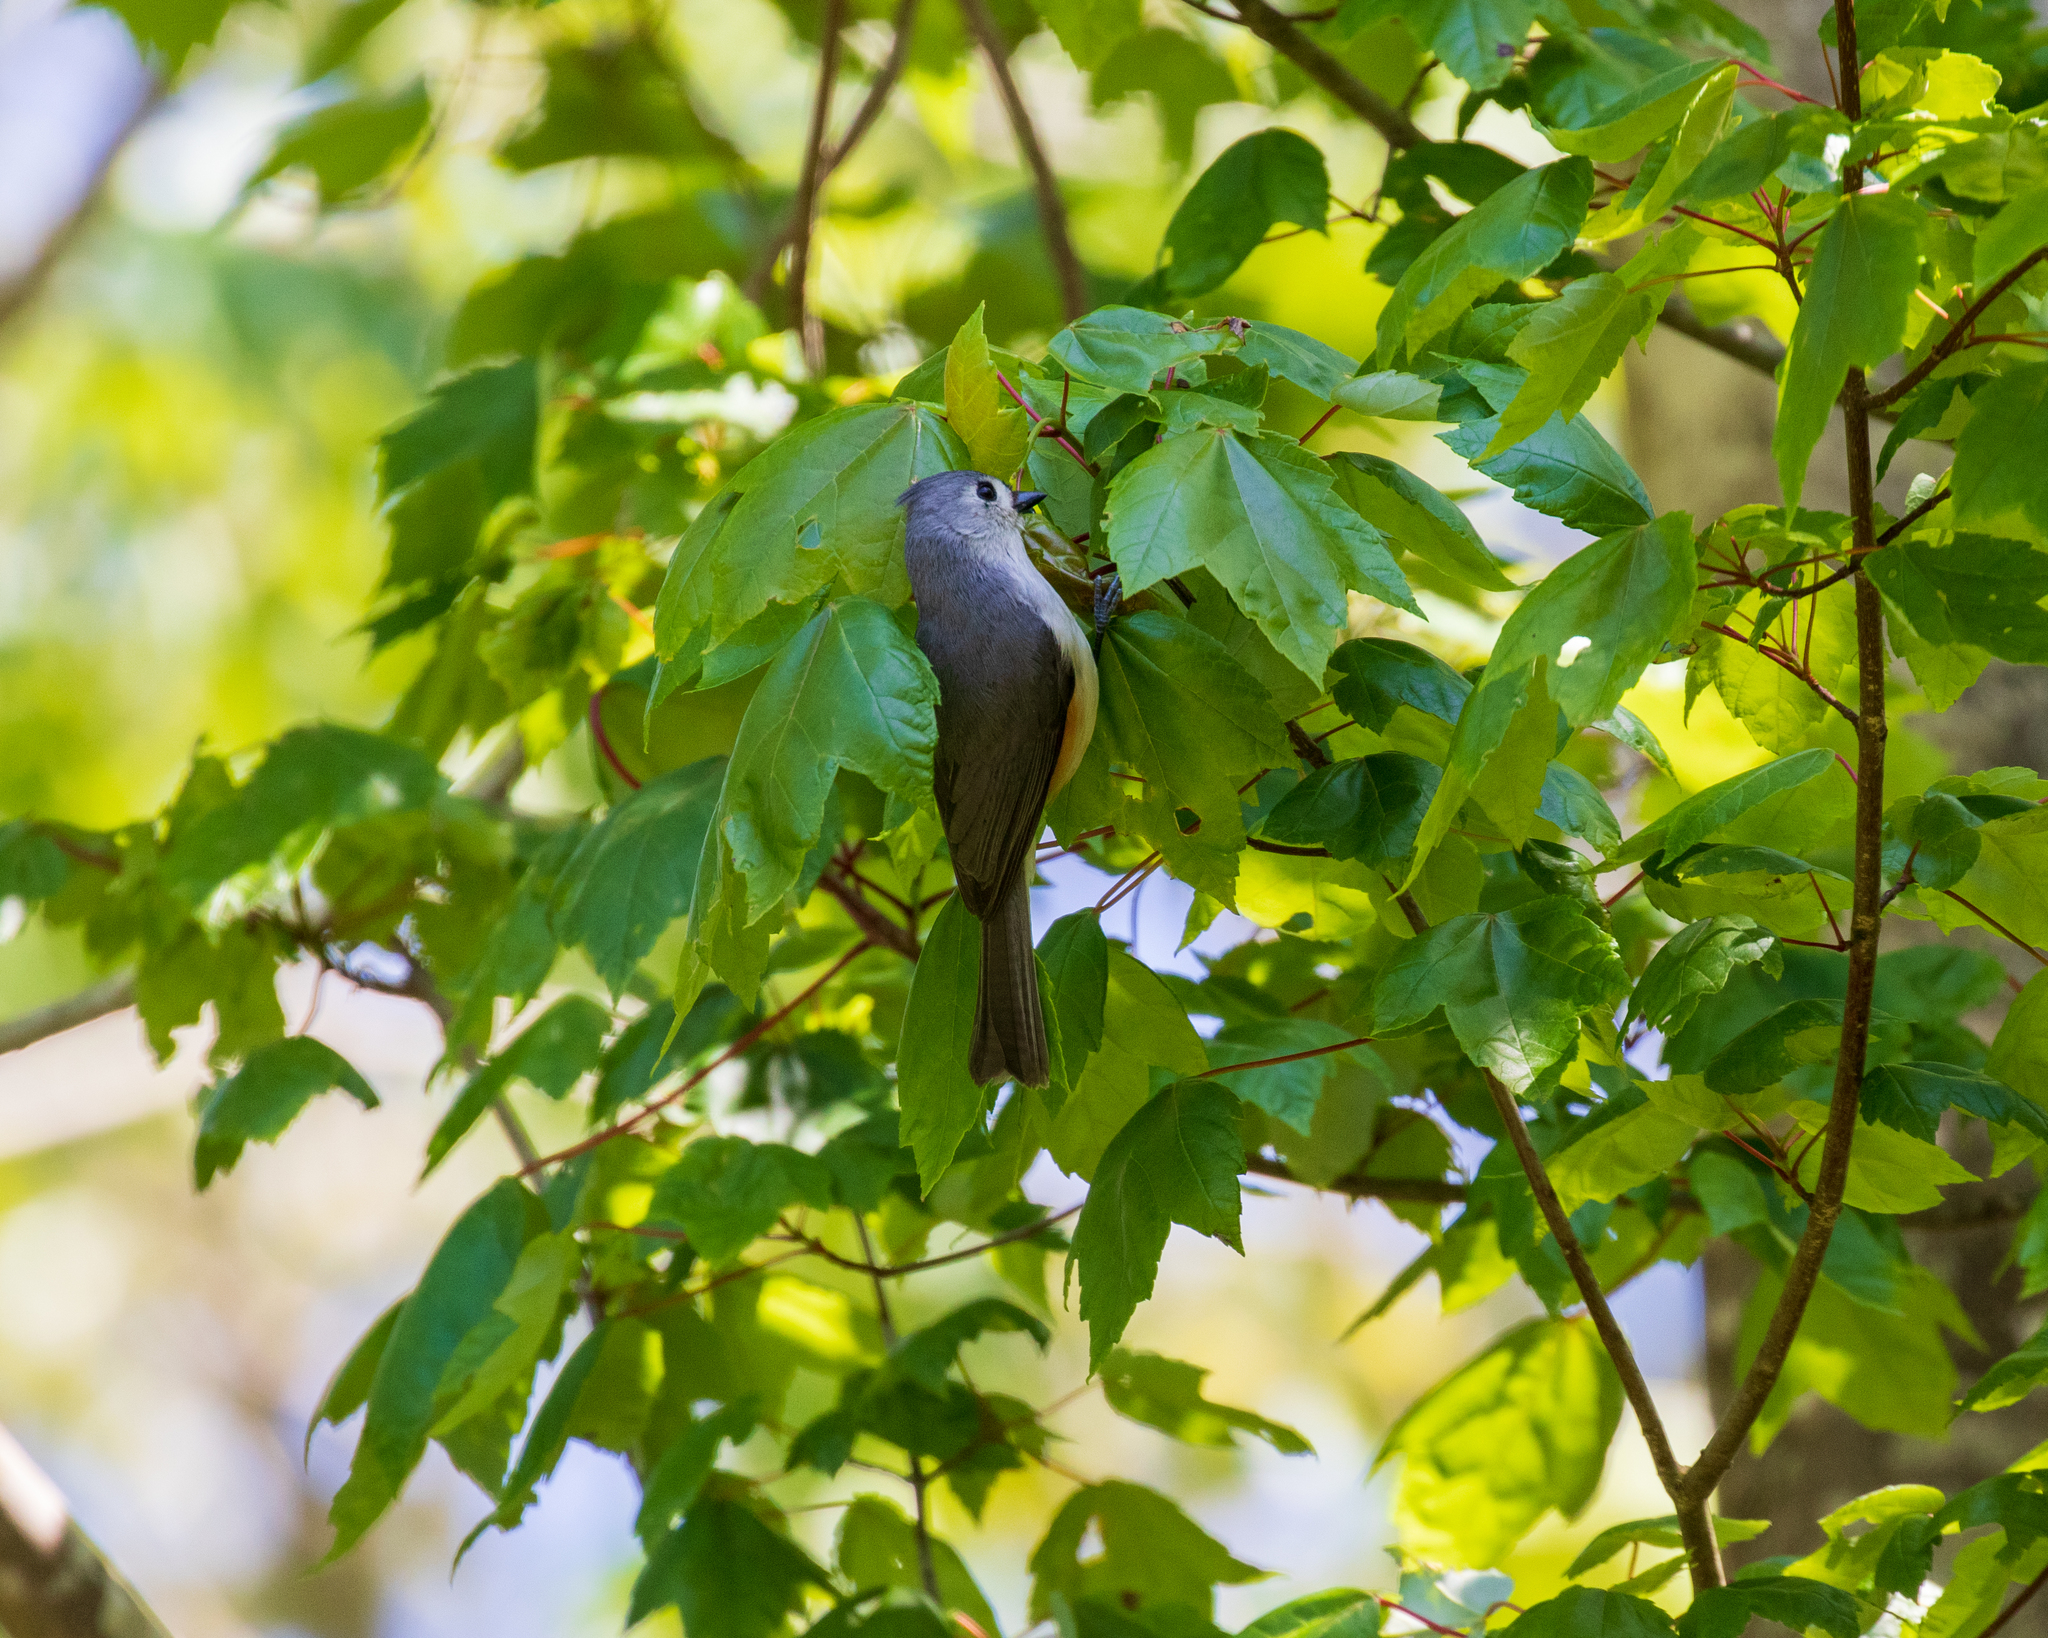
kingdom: Animalia
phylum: Chordata
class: Aves
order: Passeriformes
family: Paridae
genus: Baeolophus
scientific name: Baeolophus bicolor
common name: Tufted titmouse
